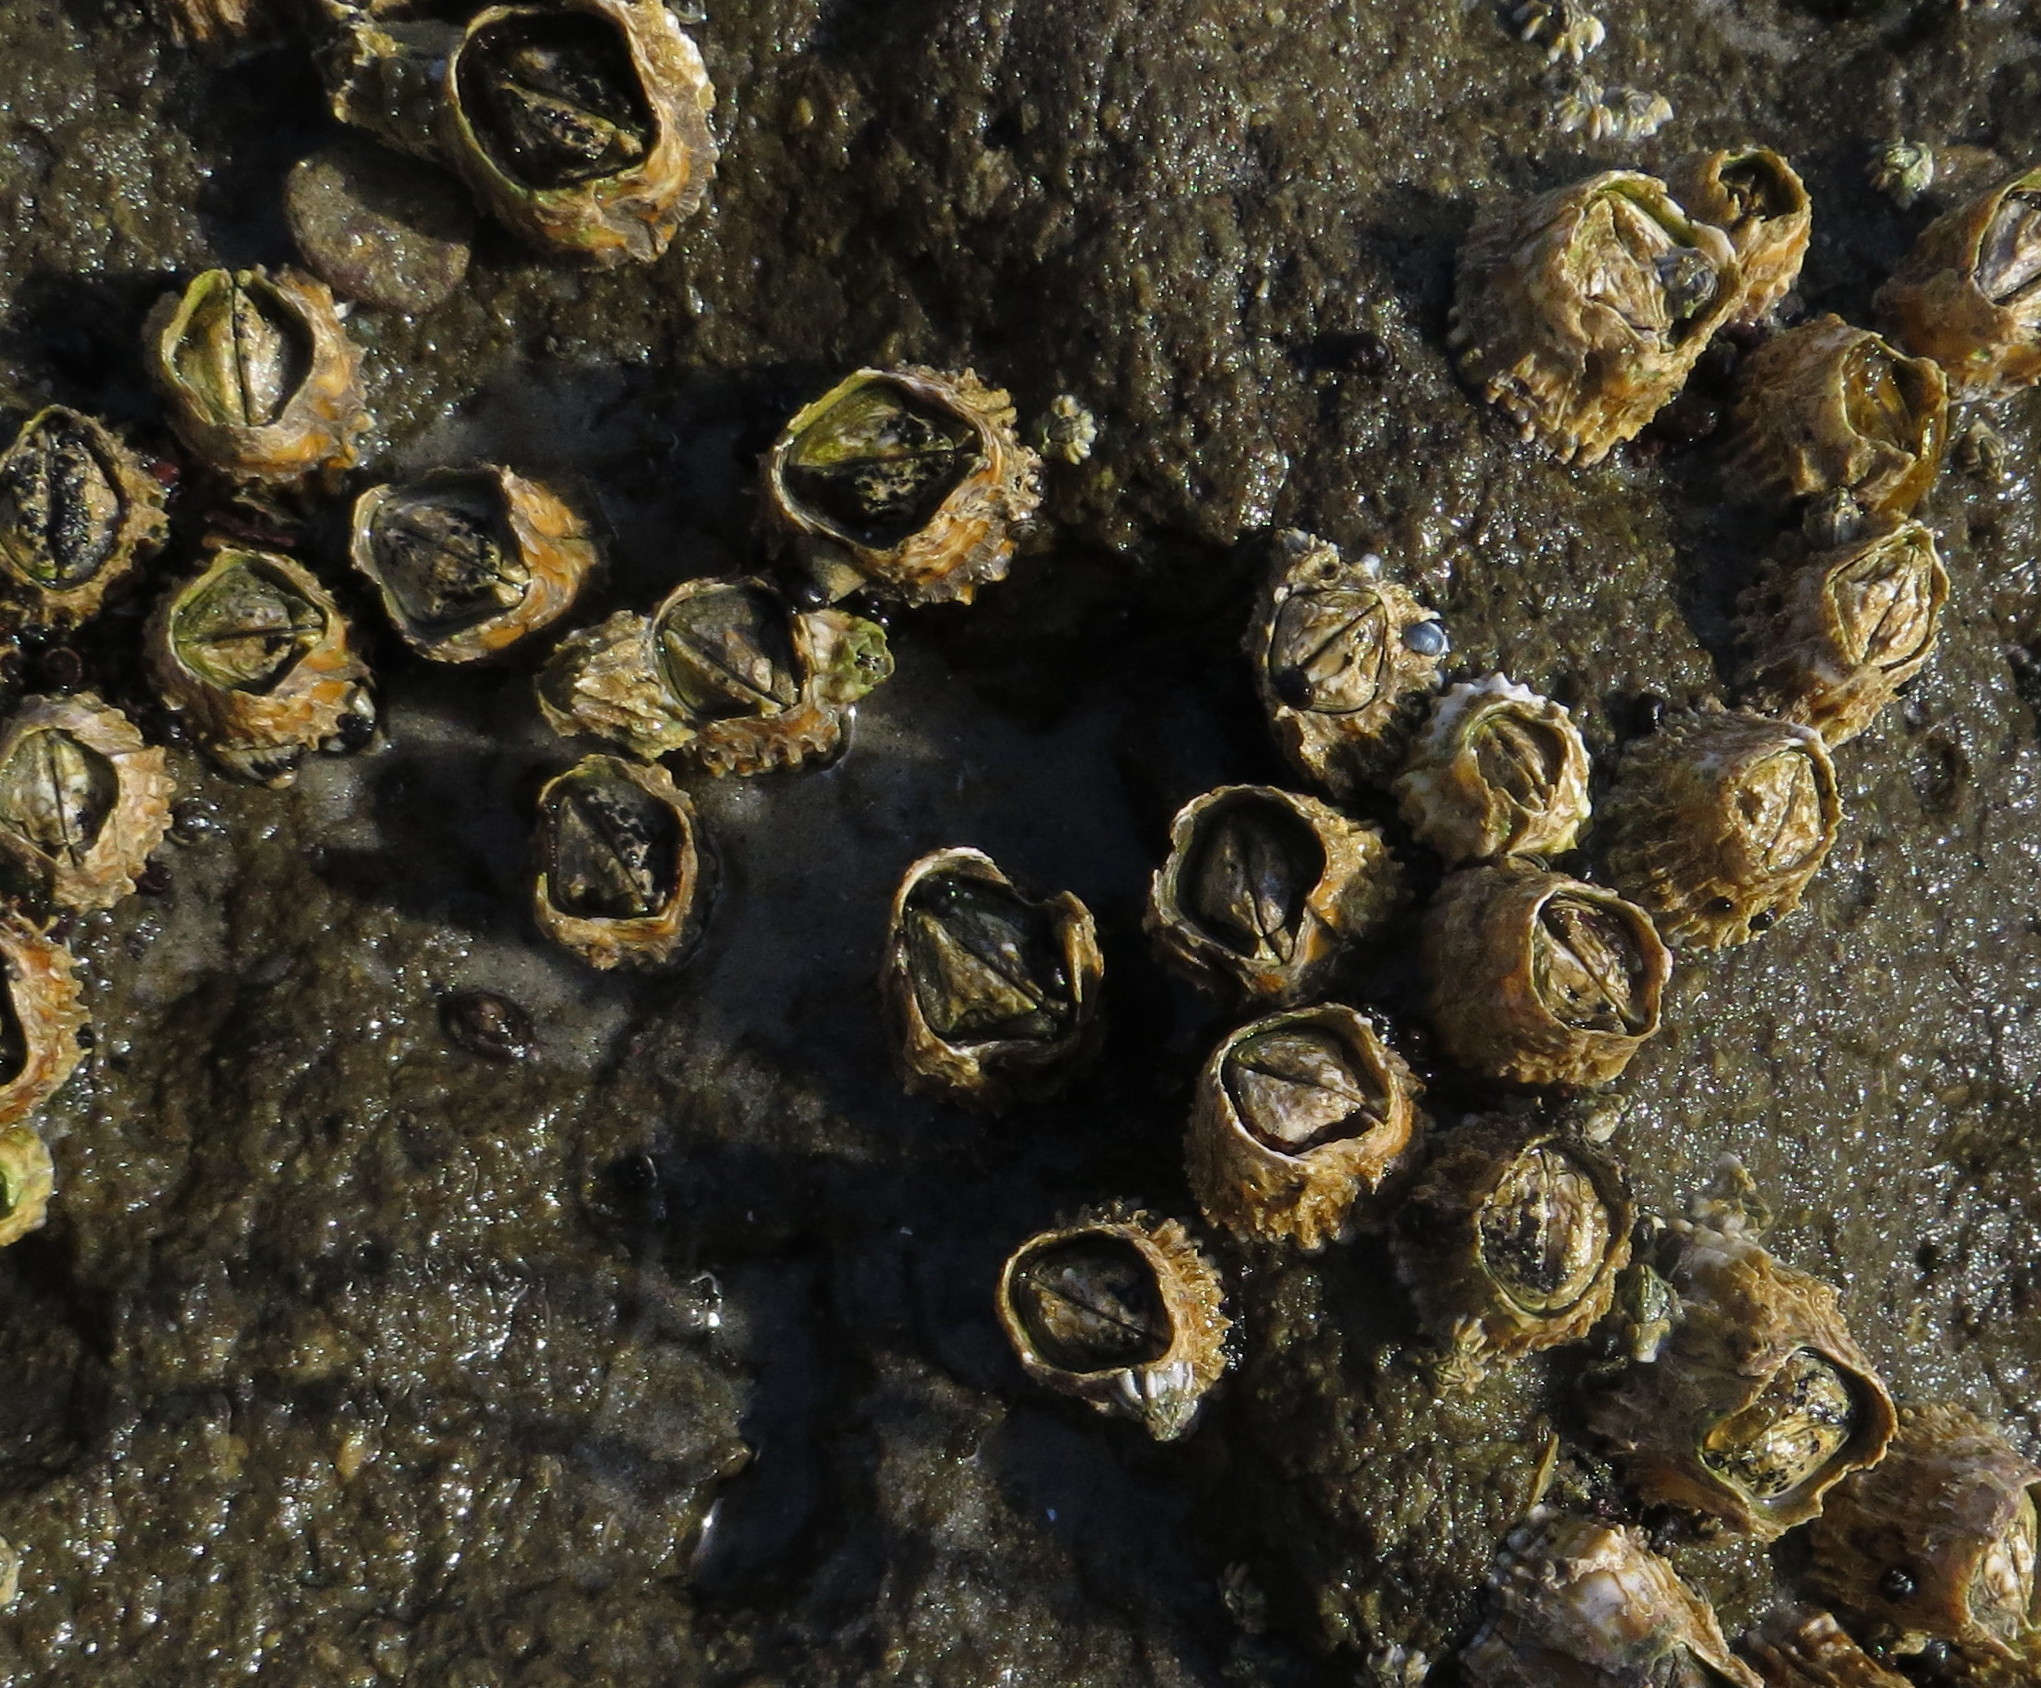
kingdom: Animalia
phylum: Arthropoda
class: Maxillopoda
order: Sessilia
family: Tetraclitidae
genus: Epopella
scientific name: Epopella plicata
